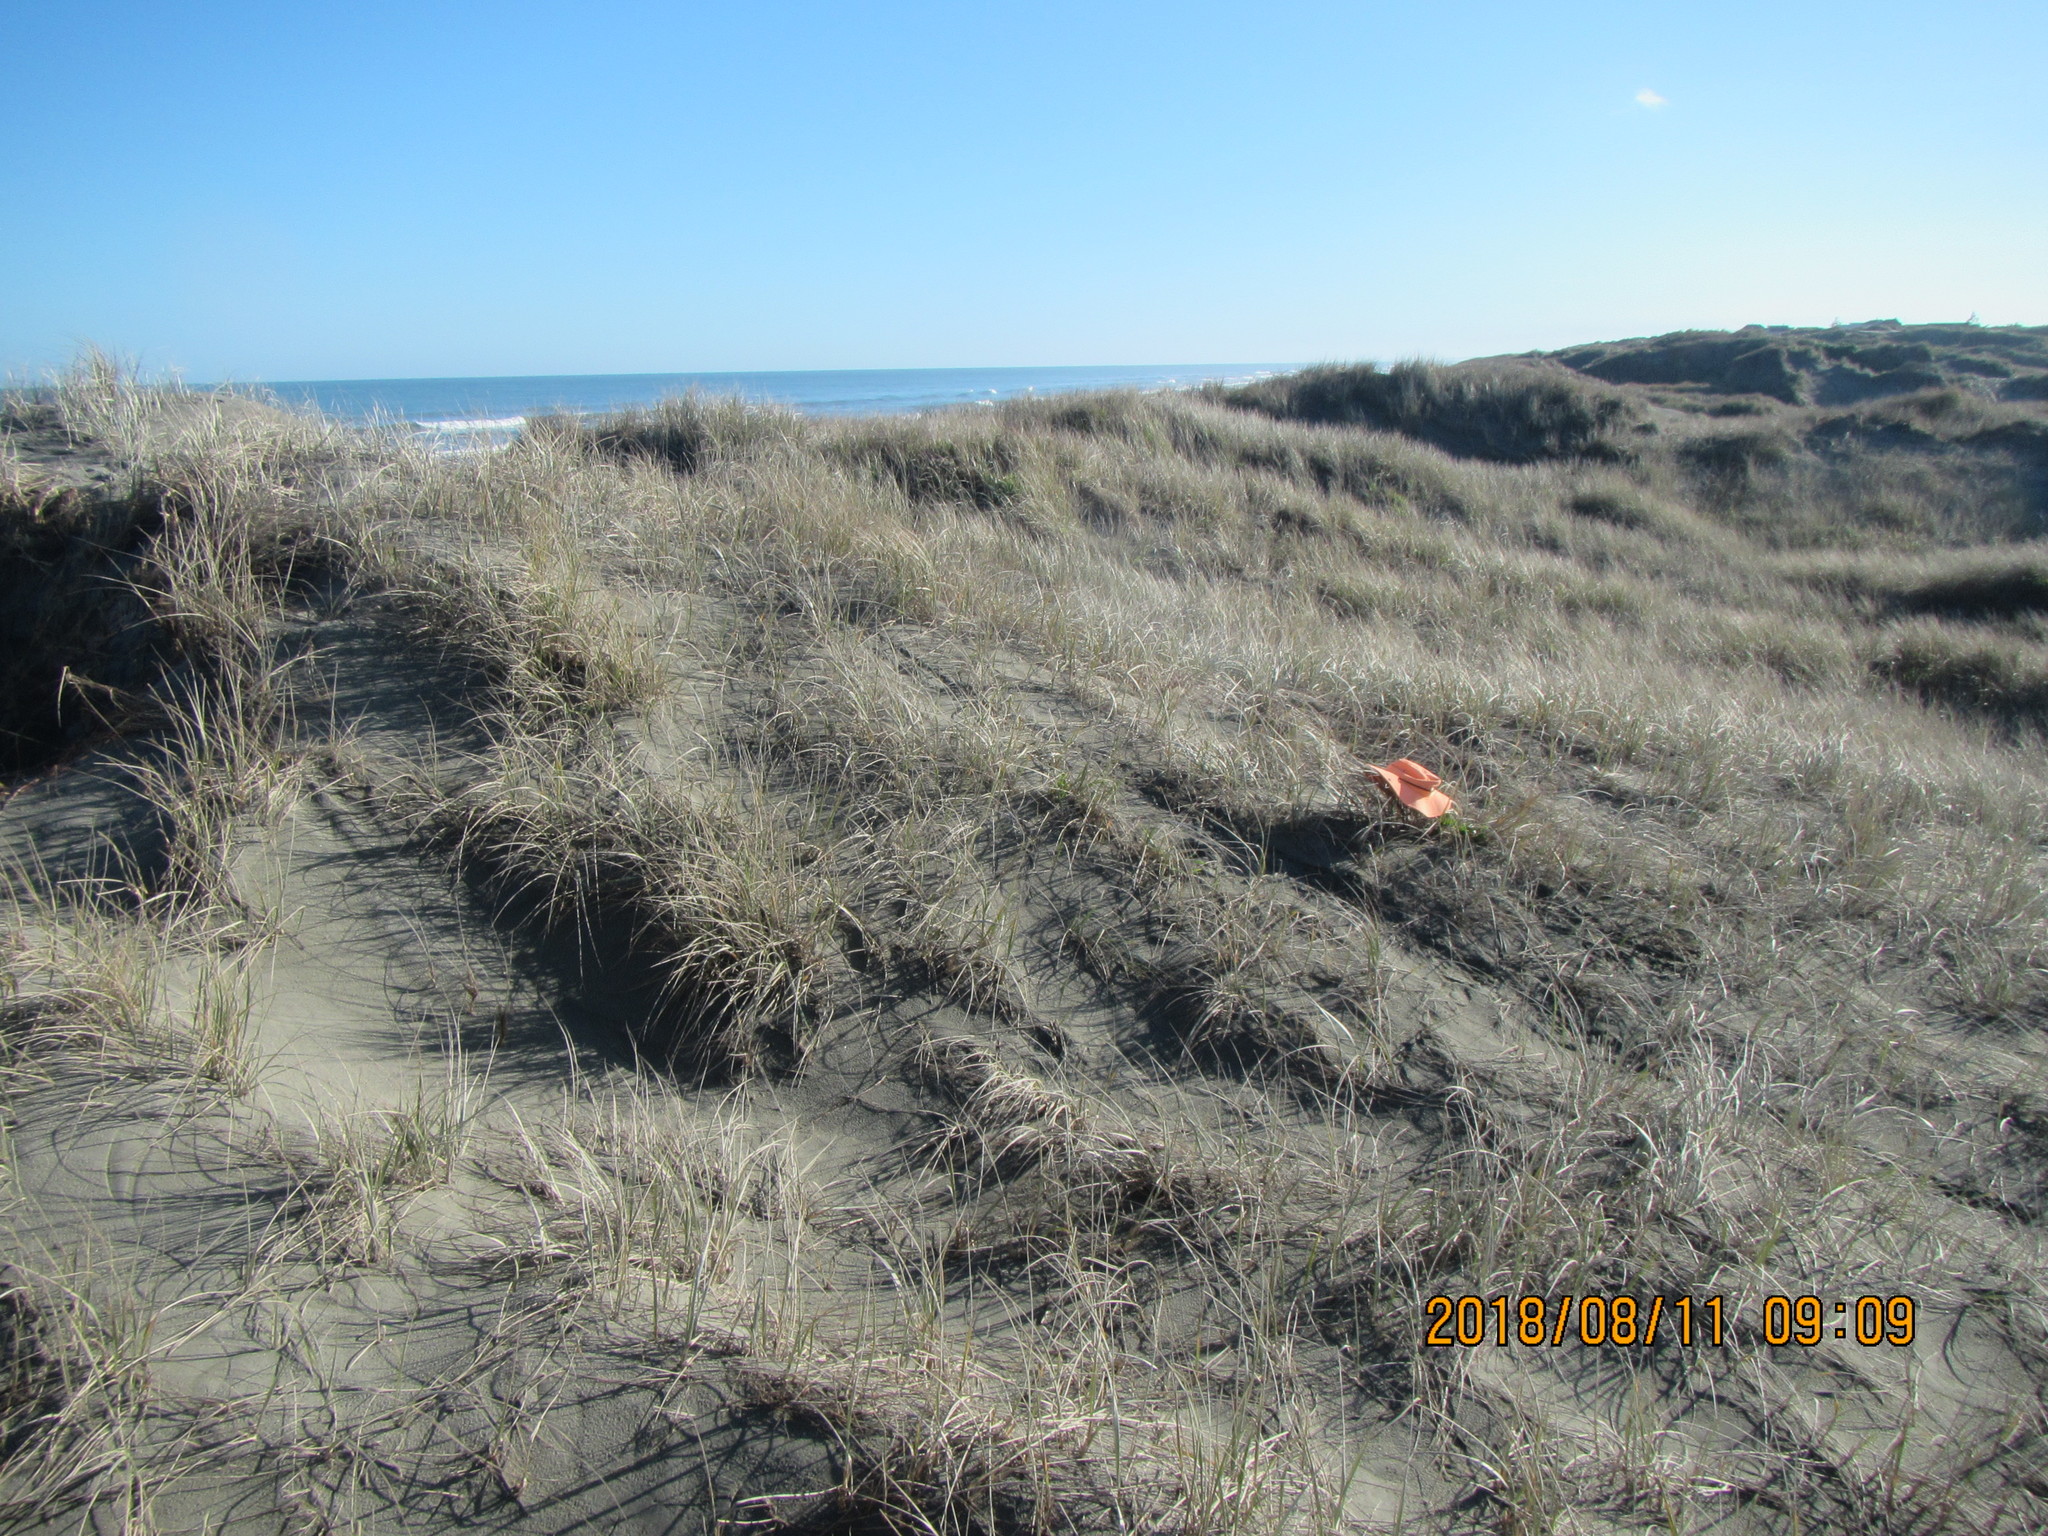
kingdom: Plantae
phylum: Tracheophyta
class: Magnoliopsida
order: Asterales
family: Asteraceae
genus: Sonchus
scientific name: Sonchus oleraceus
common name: Common sowthistle
